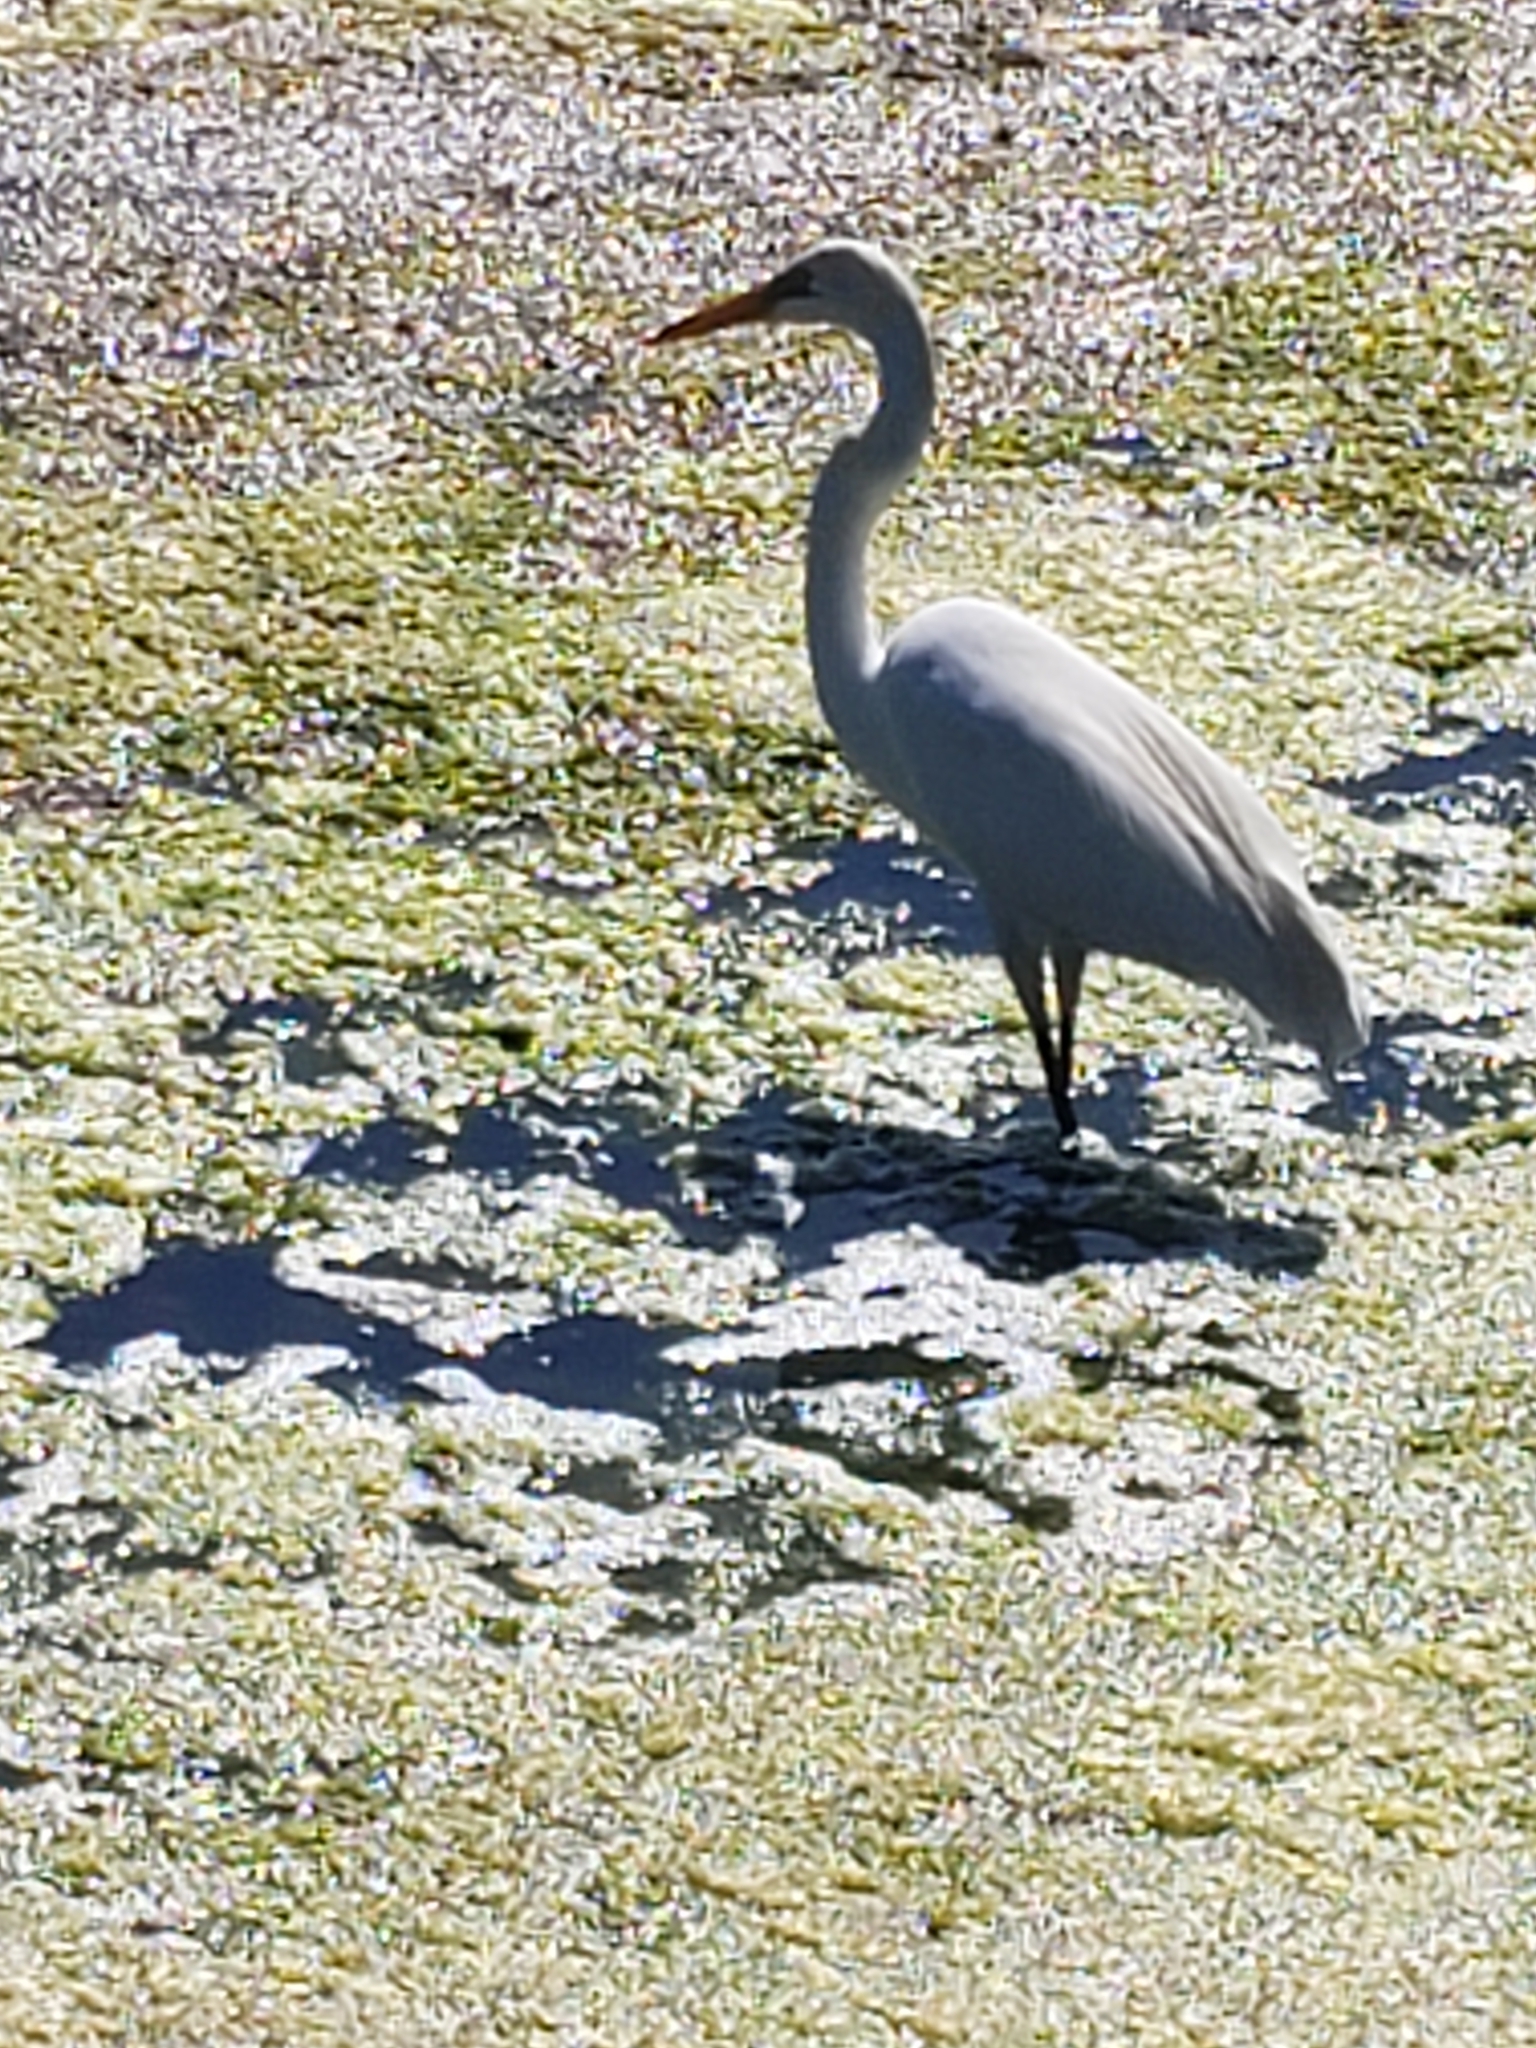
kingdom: Animalia
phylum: Chordata
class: Aves
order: Pelecaniformes
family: Ardeidae
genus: Ardea
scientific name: Ardea alba
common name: Great egret
